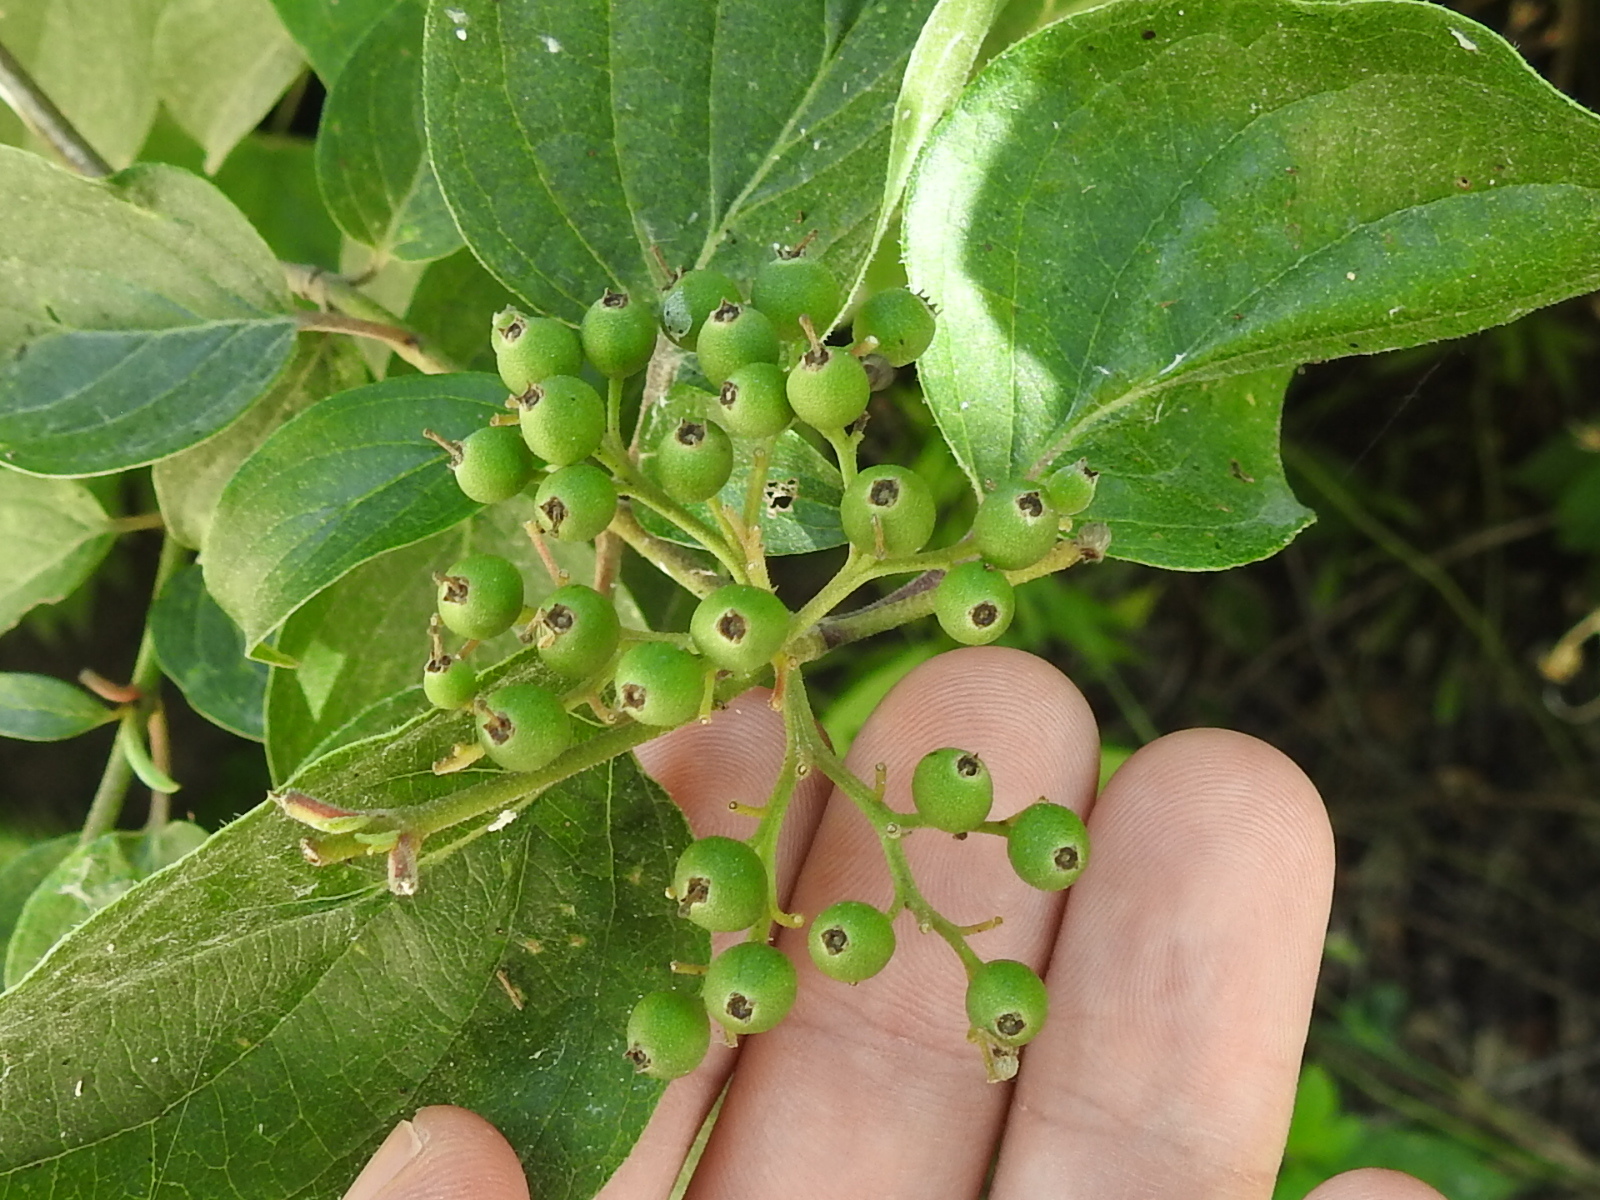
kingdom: Plantae
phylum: Tracheophyta
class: Magnoliopsida
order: Cornales
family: Cornaceae
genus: Cornus
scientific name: Cornus drummondii
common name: Rough-leaf dogwood
